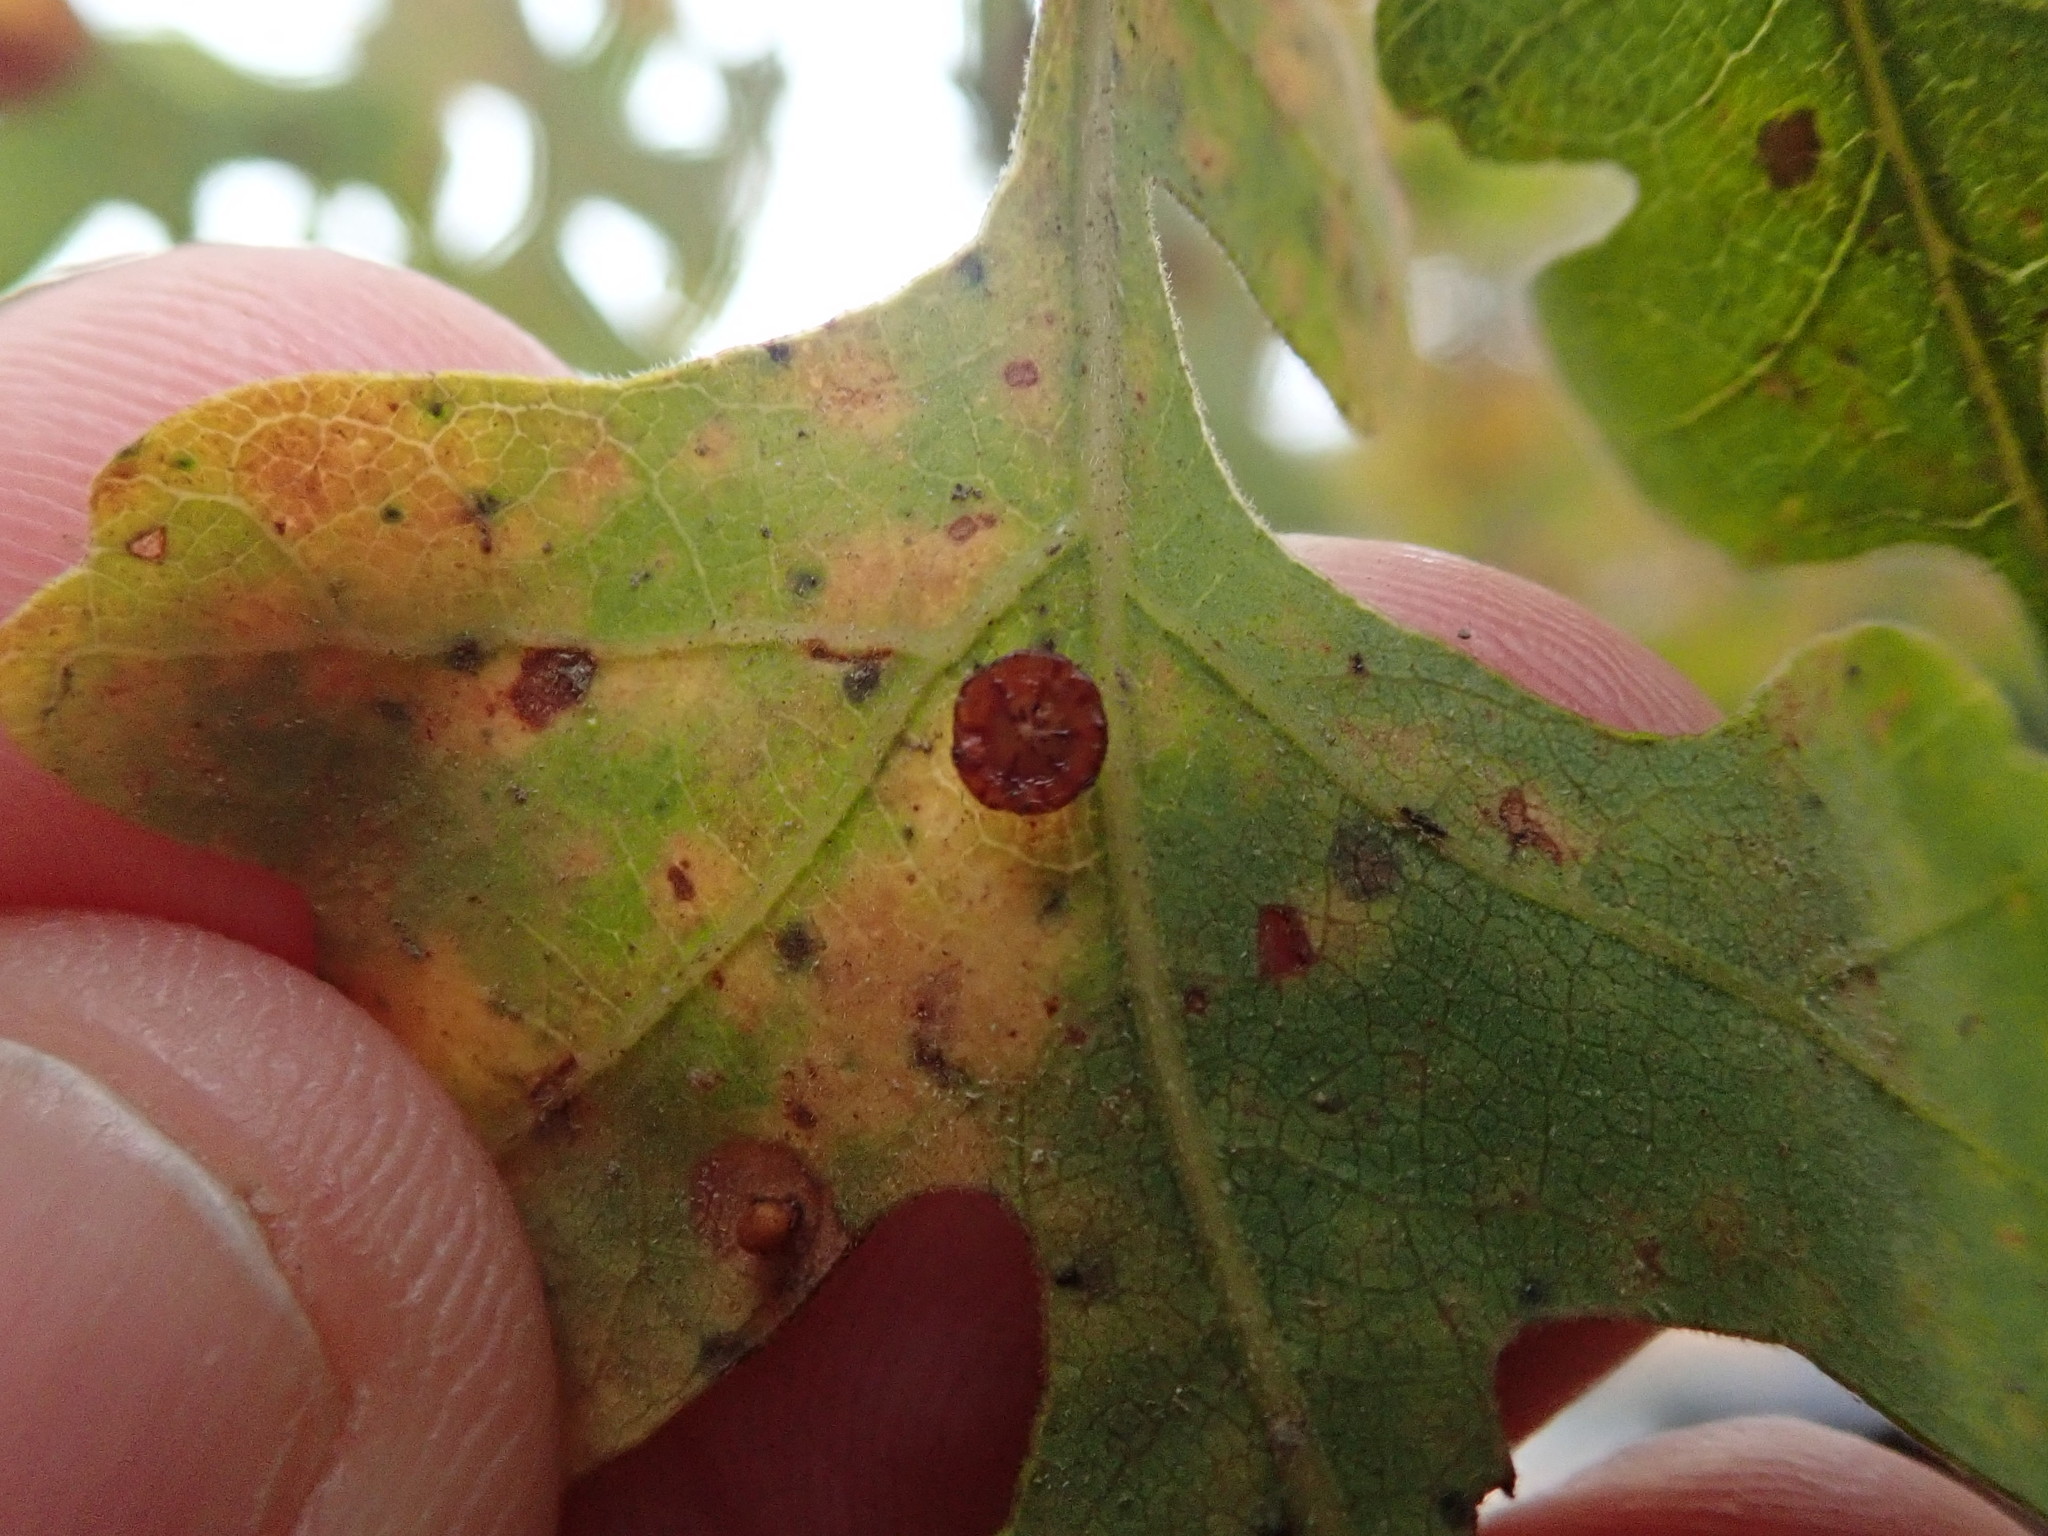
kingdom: Animalia
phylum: Arthropoda
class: Insecta
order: Hymenoptera
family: Cynipidae
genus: Andricus
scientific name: Andricus
